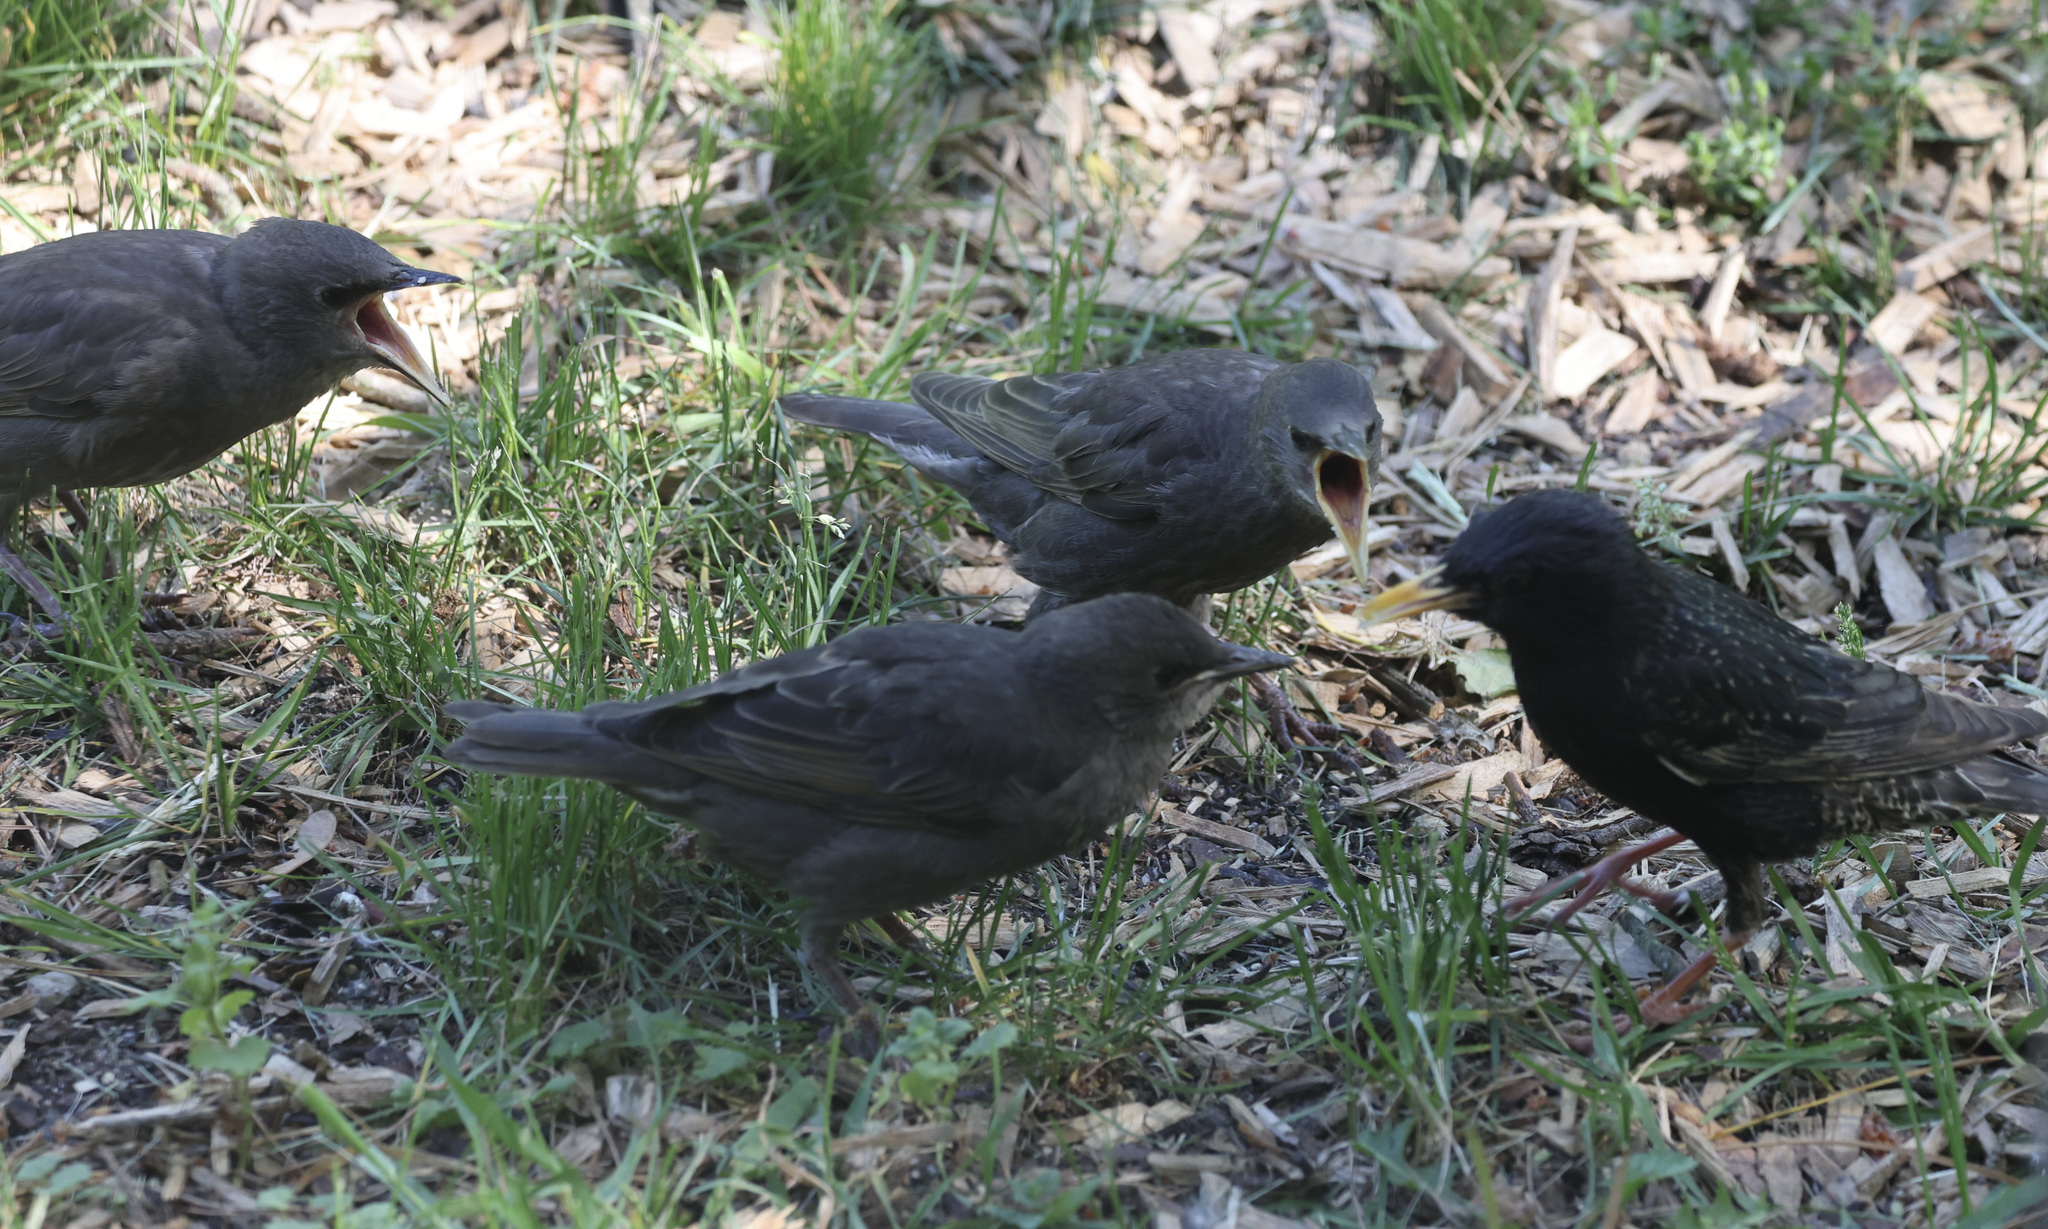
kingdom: Animalia
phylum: Chordata
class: Aves
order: Passeriformes
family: Sturnidae
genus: Sturnus
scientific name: Sturnus vulgaris
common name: Common starling
